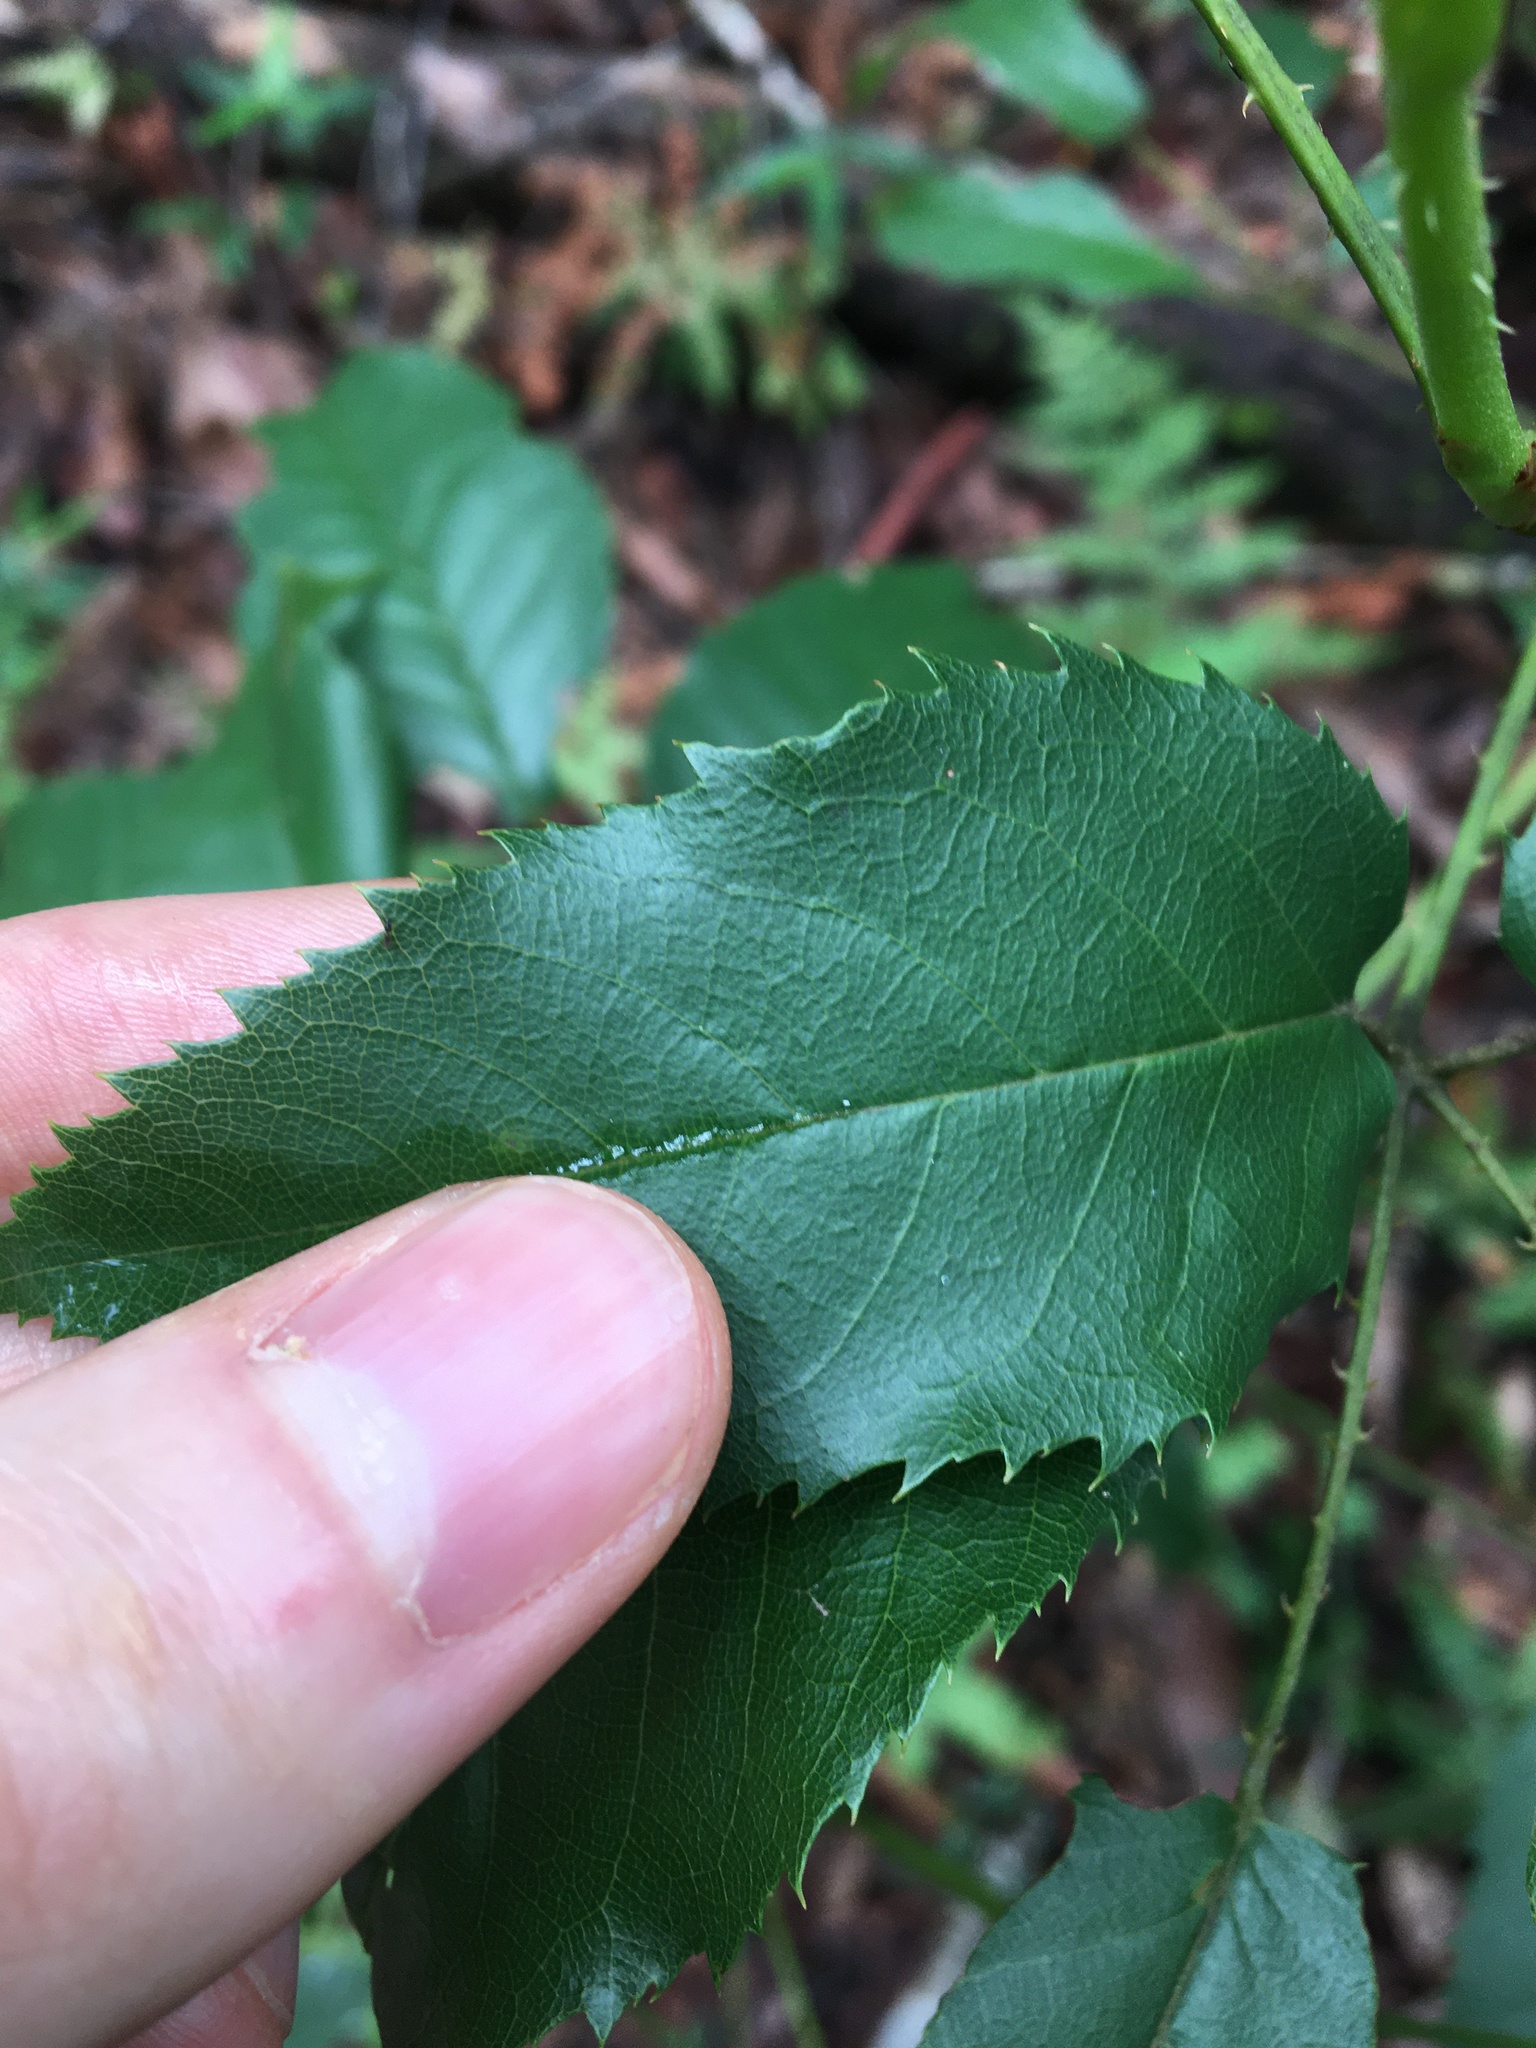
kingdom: Plantae
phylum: Tracheophyta
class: Magnoliopsida
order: Rosales
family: Rosaceae
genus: Rubus
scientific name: Rubus nebulosus
